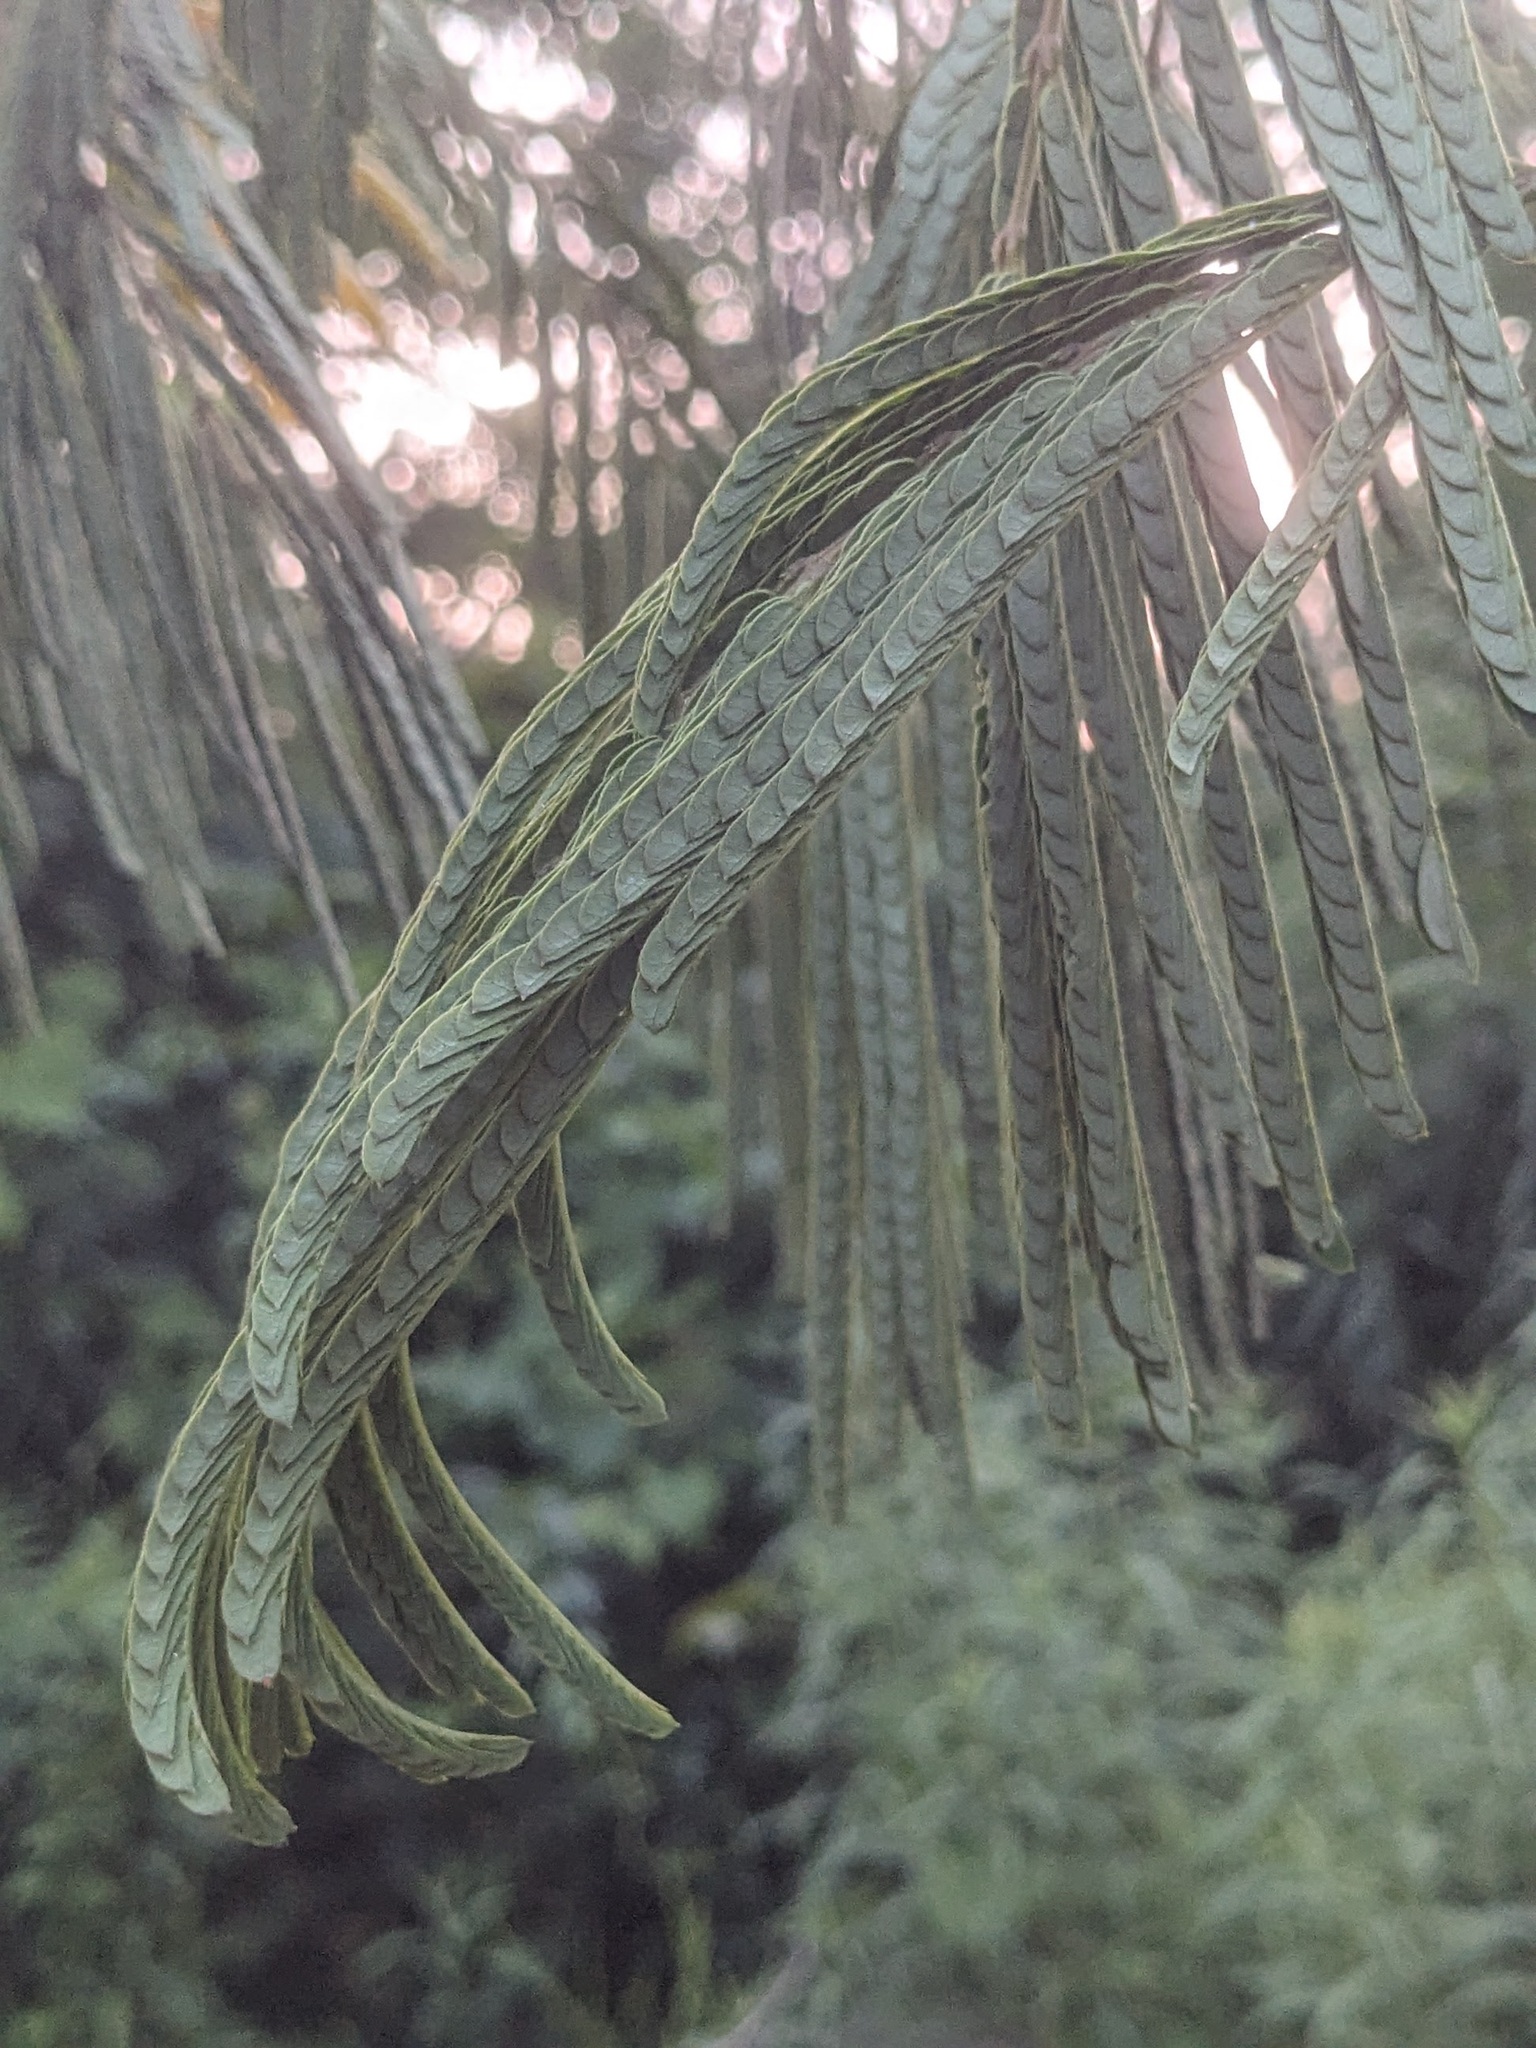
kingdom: Plantae
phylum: Tracheophyta
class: Magnoliopsida
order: Fabales
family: Fabaceae
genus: Albizia
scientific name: Albizia julibrissin
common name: Silktree
